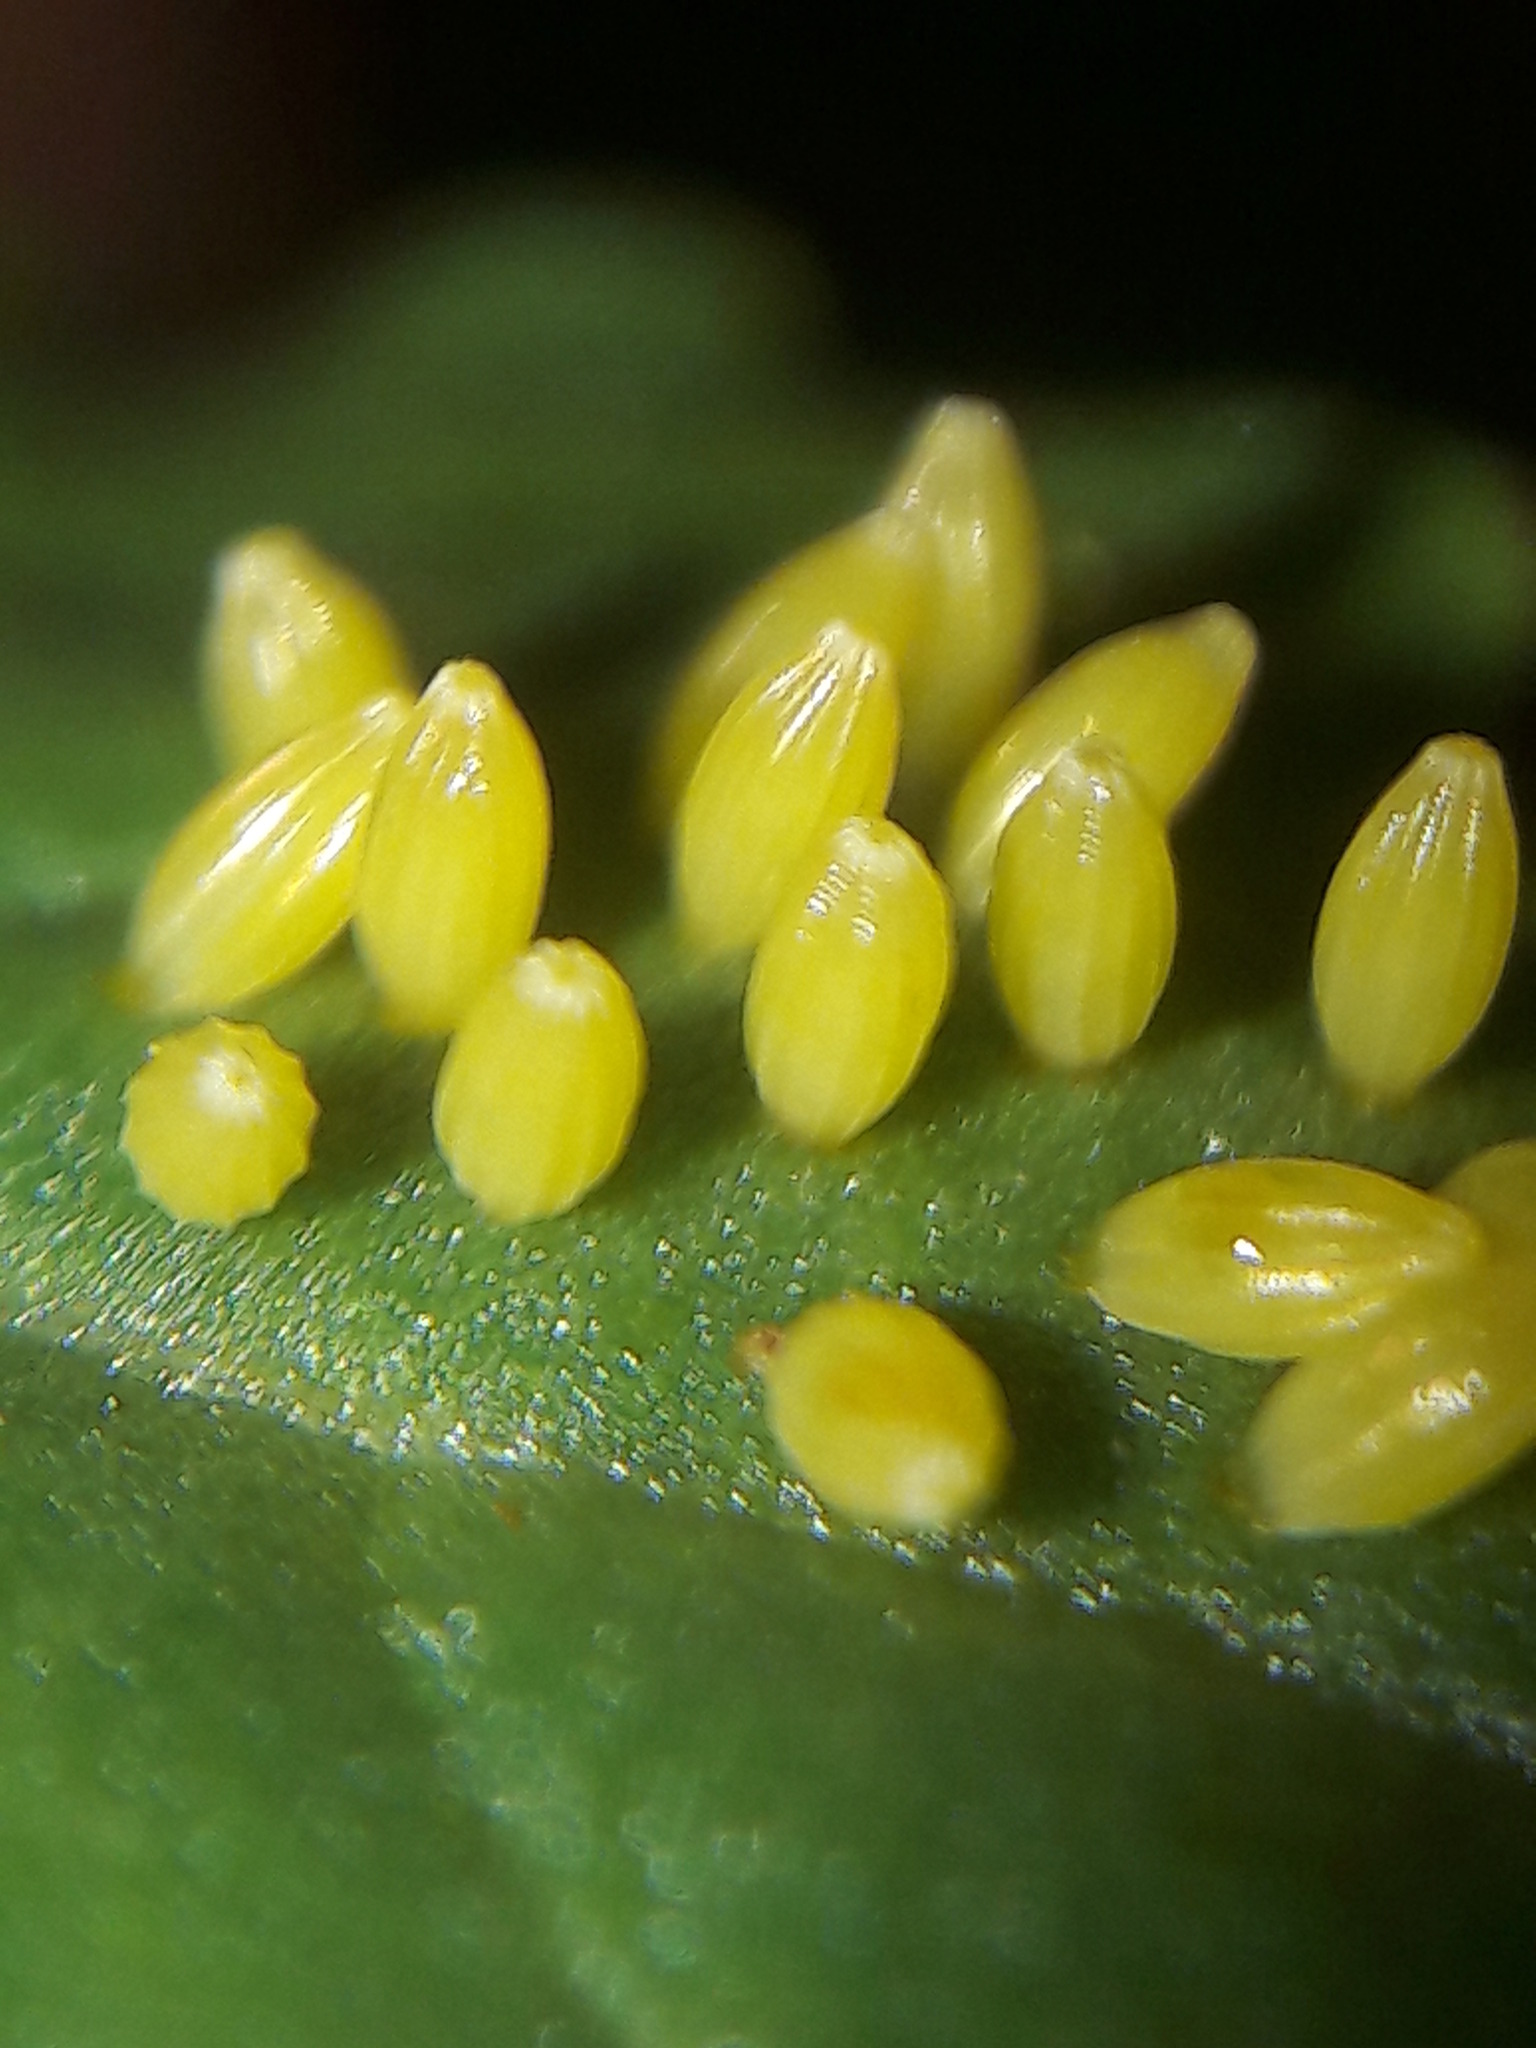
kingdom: Animalia
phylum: Arthropoda
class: Insecta
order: Lepidoptera
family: Pieridae
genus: Ascia
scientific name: Ascia monuste
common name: Great southern white
